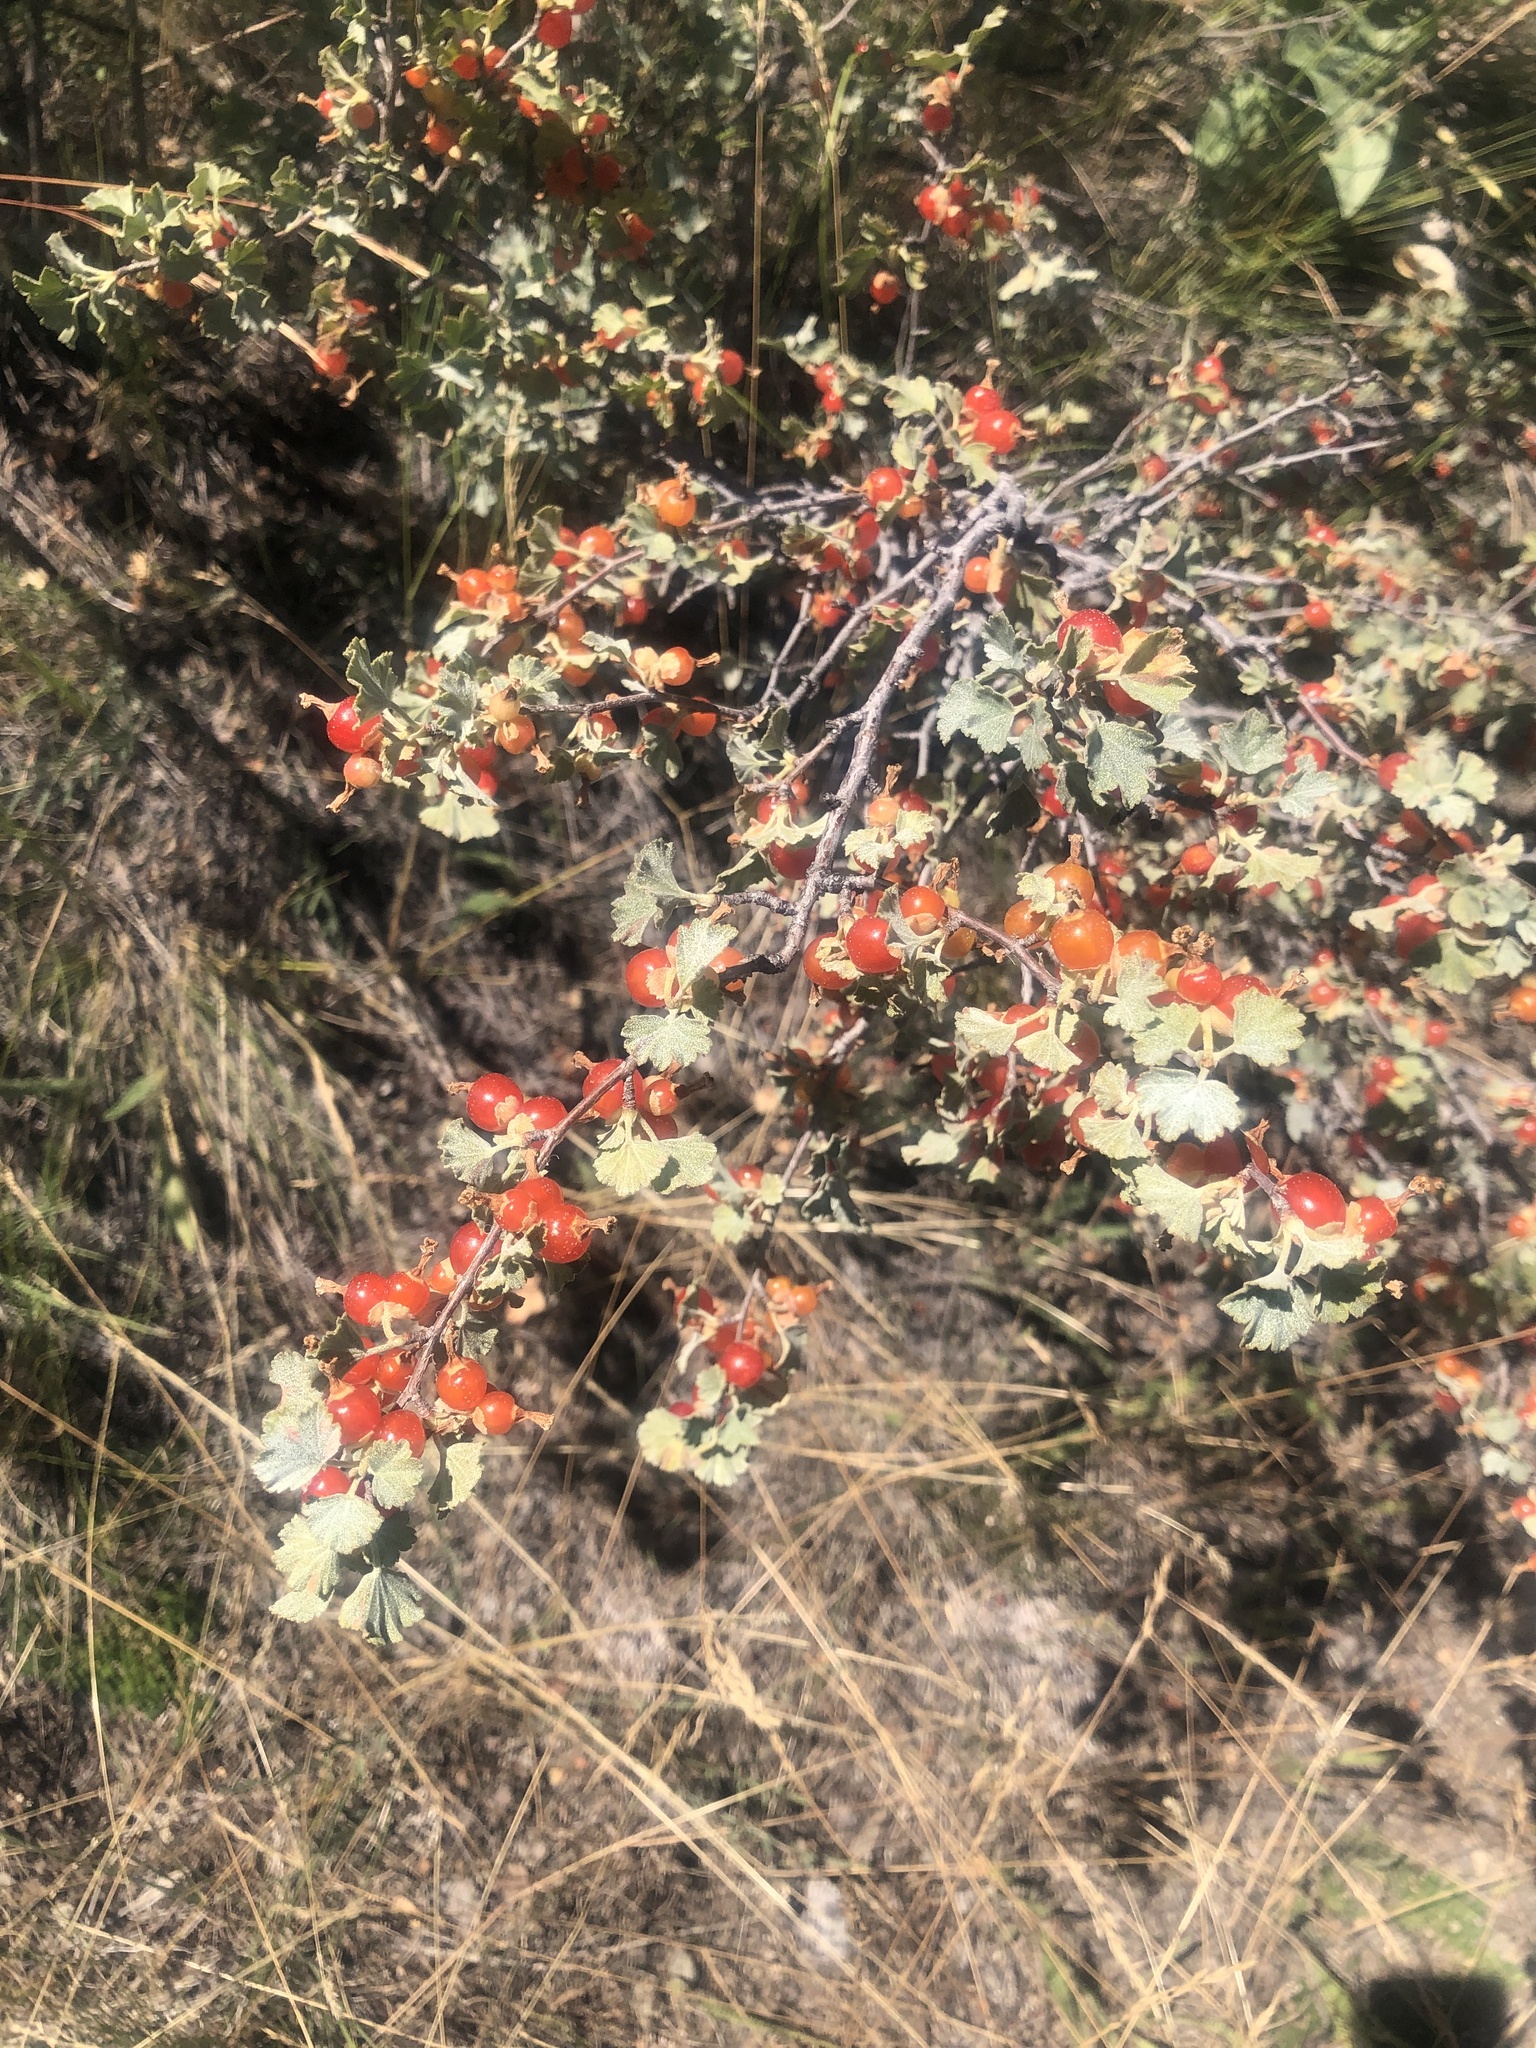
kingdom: Plantae
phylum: Tracheophyta
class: Magnoliopsida
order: Saxifragales
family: Grossulariaceae
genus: Ribes
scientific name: Ribes cereum
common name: Wax currant
